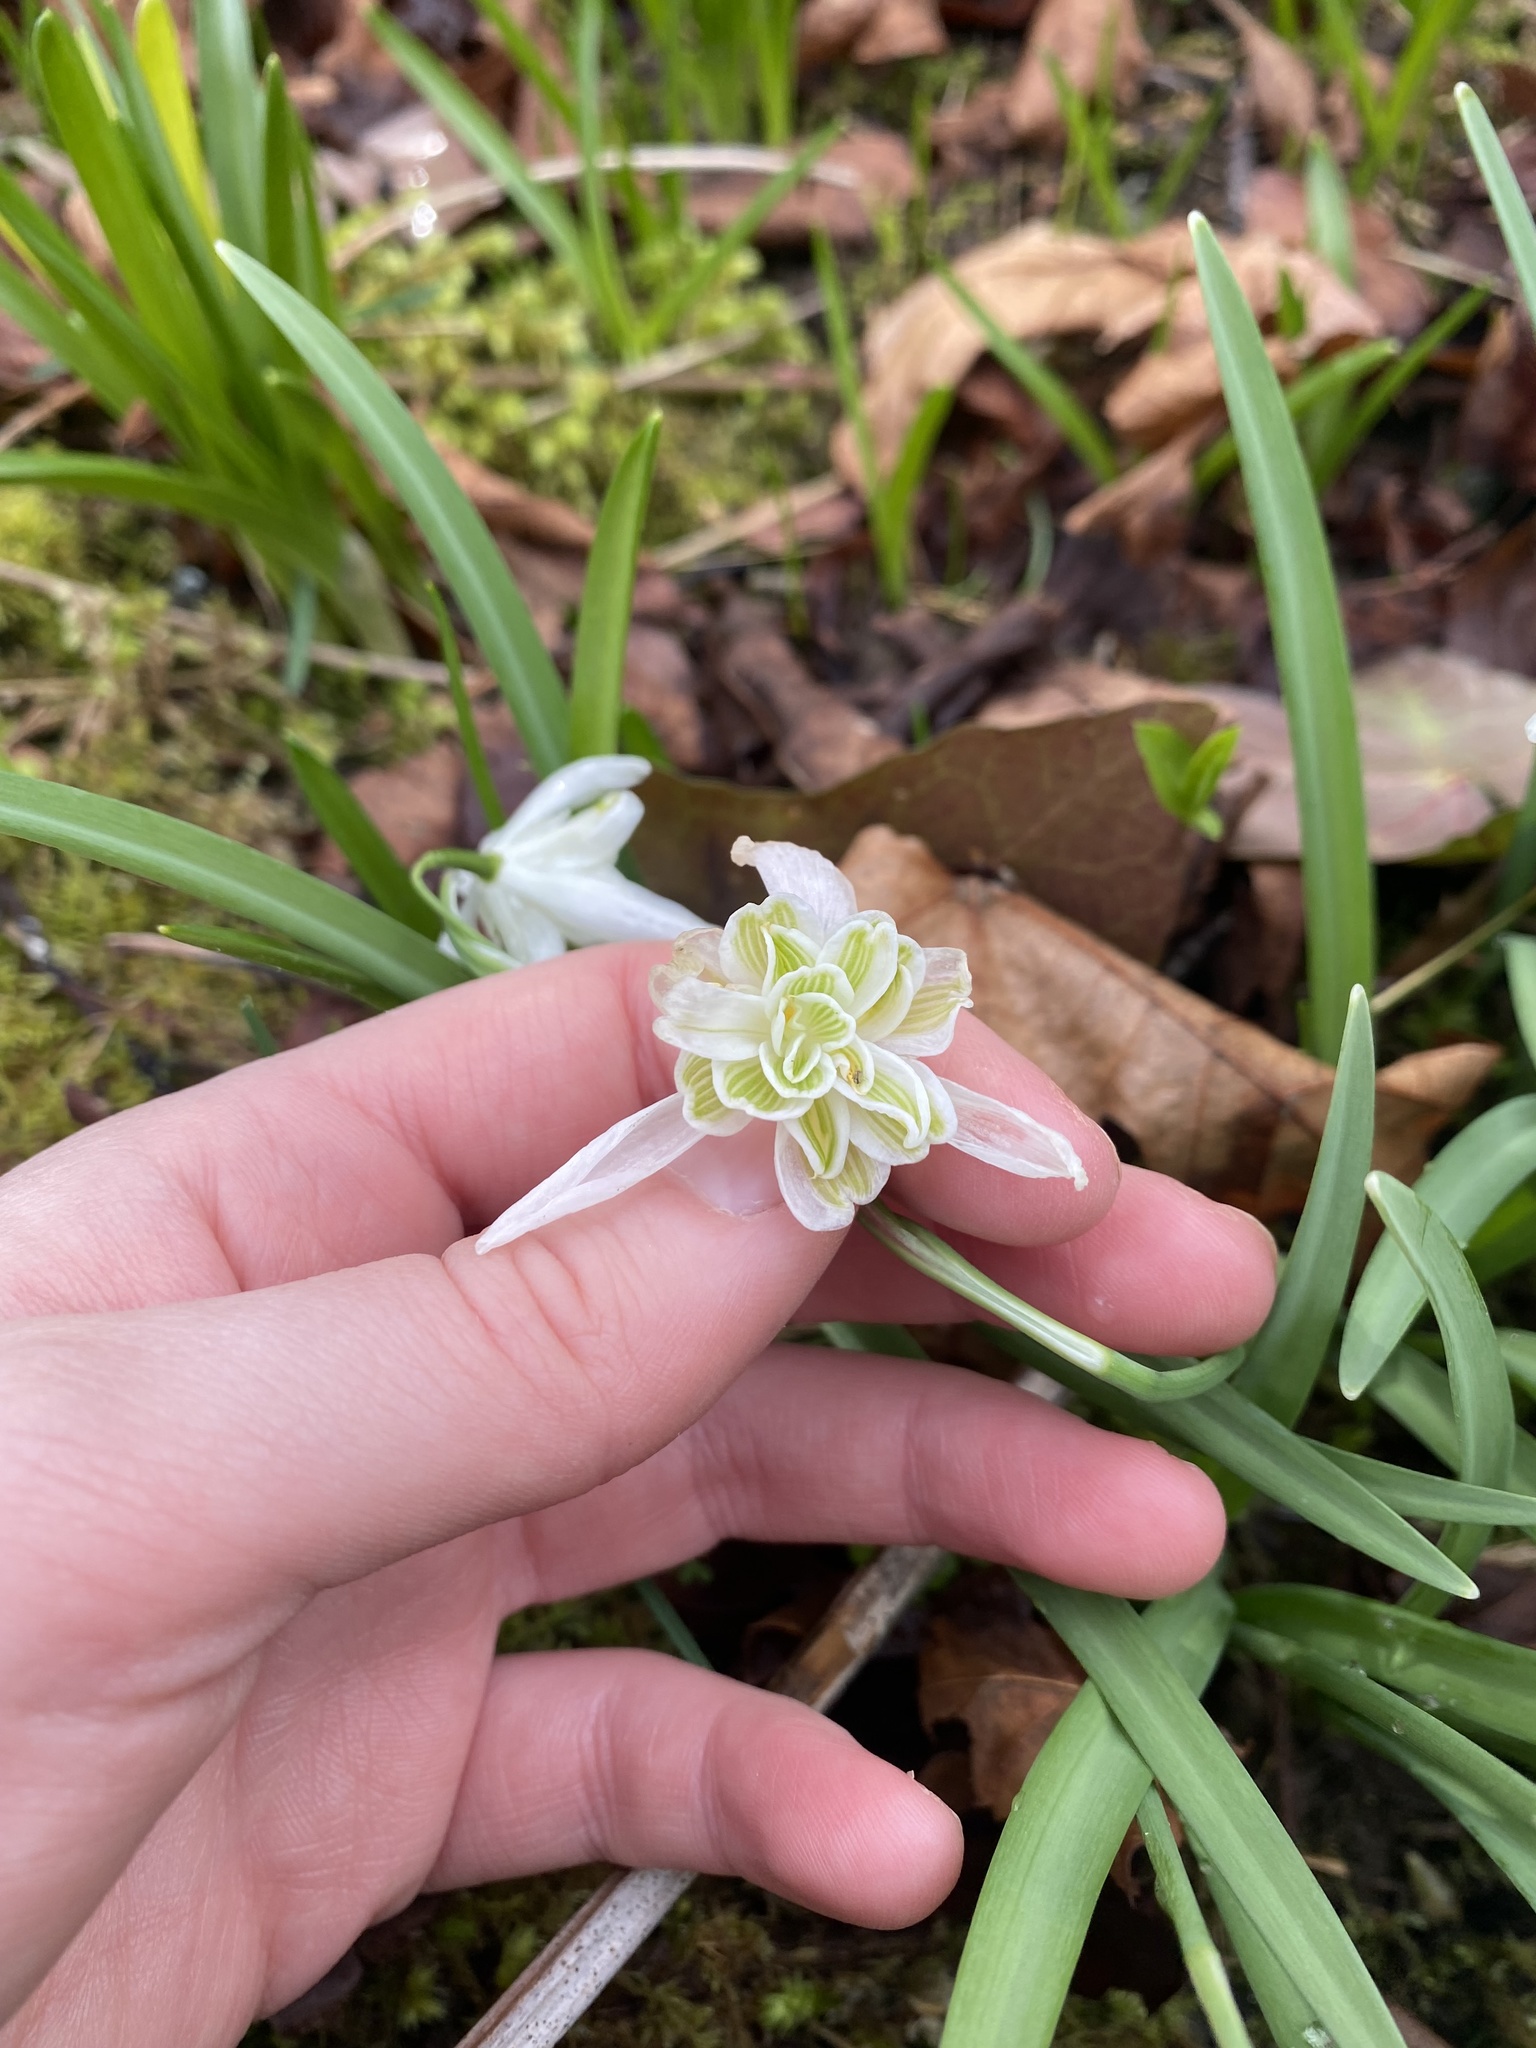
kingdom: Plantae
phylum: Tracheophyta
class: Liliopsida
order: Asparagales
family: Amaryllidaceae
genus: Galanthus
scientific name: Galanthus nivalis
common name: Snowdrop
